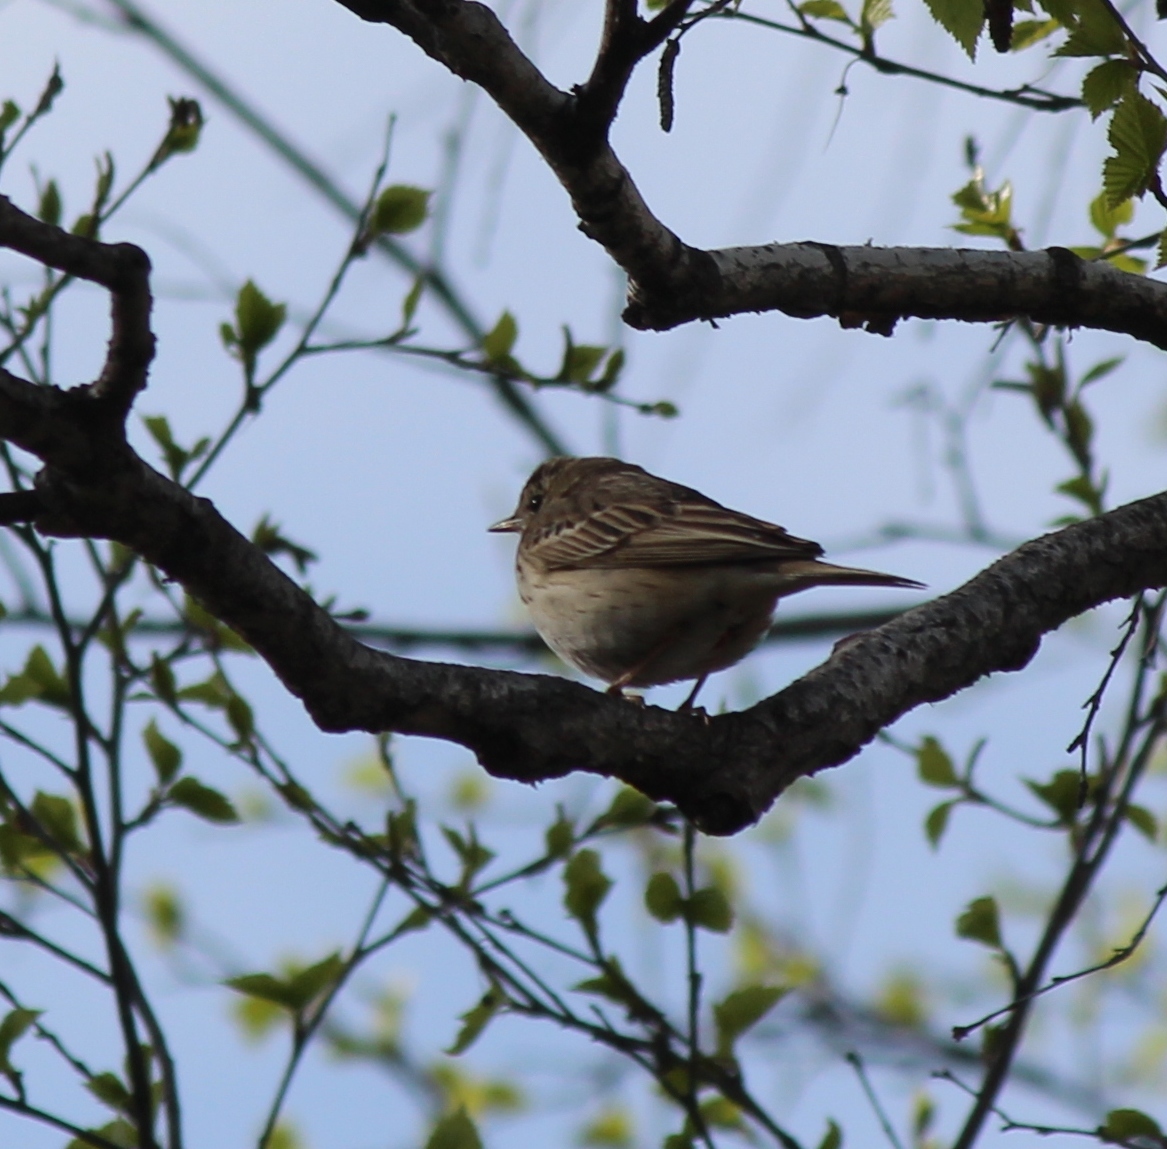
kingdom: Animalia
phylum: Chordata
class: Aves
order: Passeriformes
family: Motacillidae
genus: Anthus
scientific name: Anthus trivialis
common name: Tree pipit
